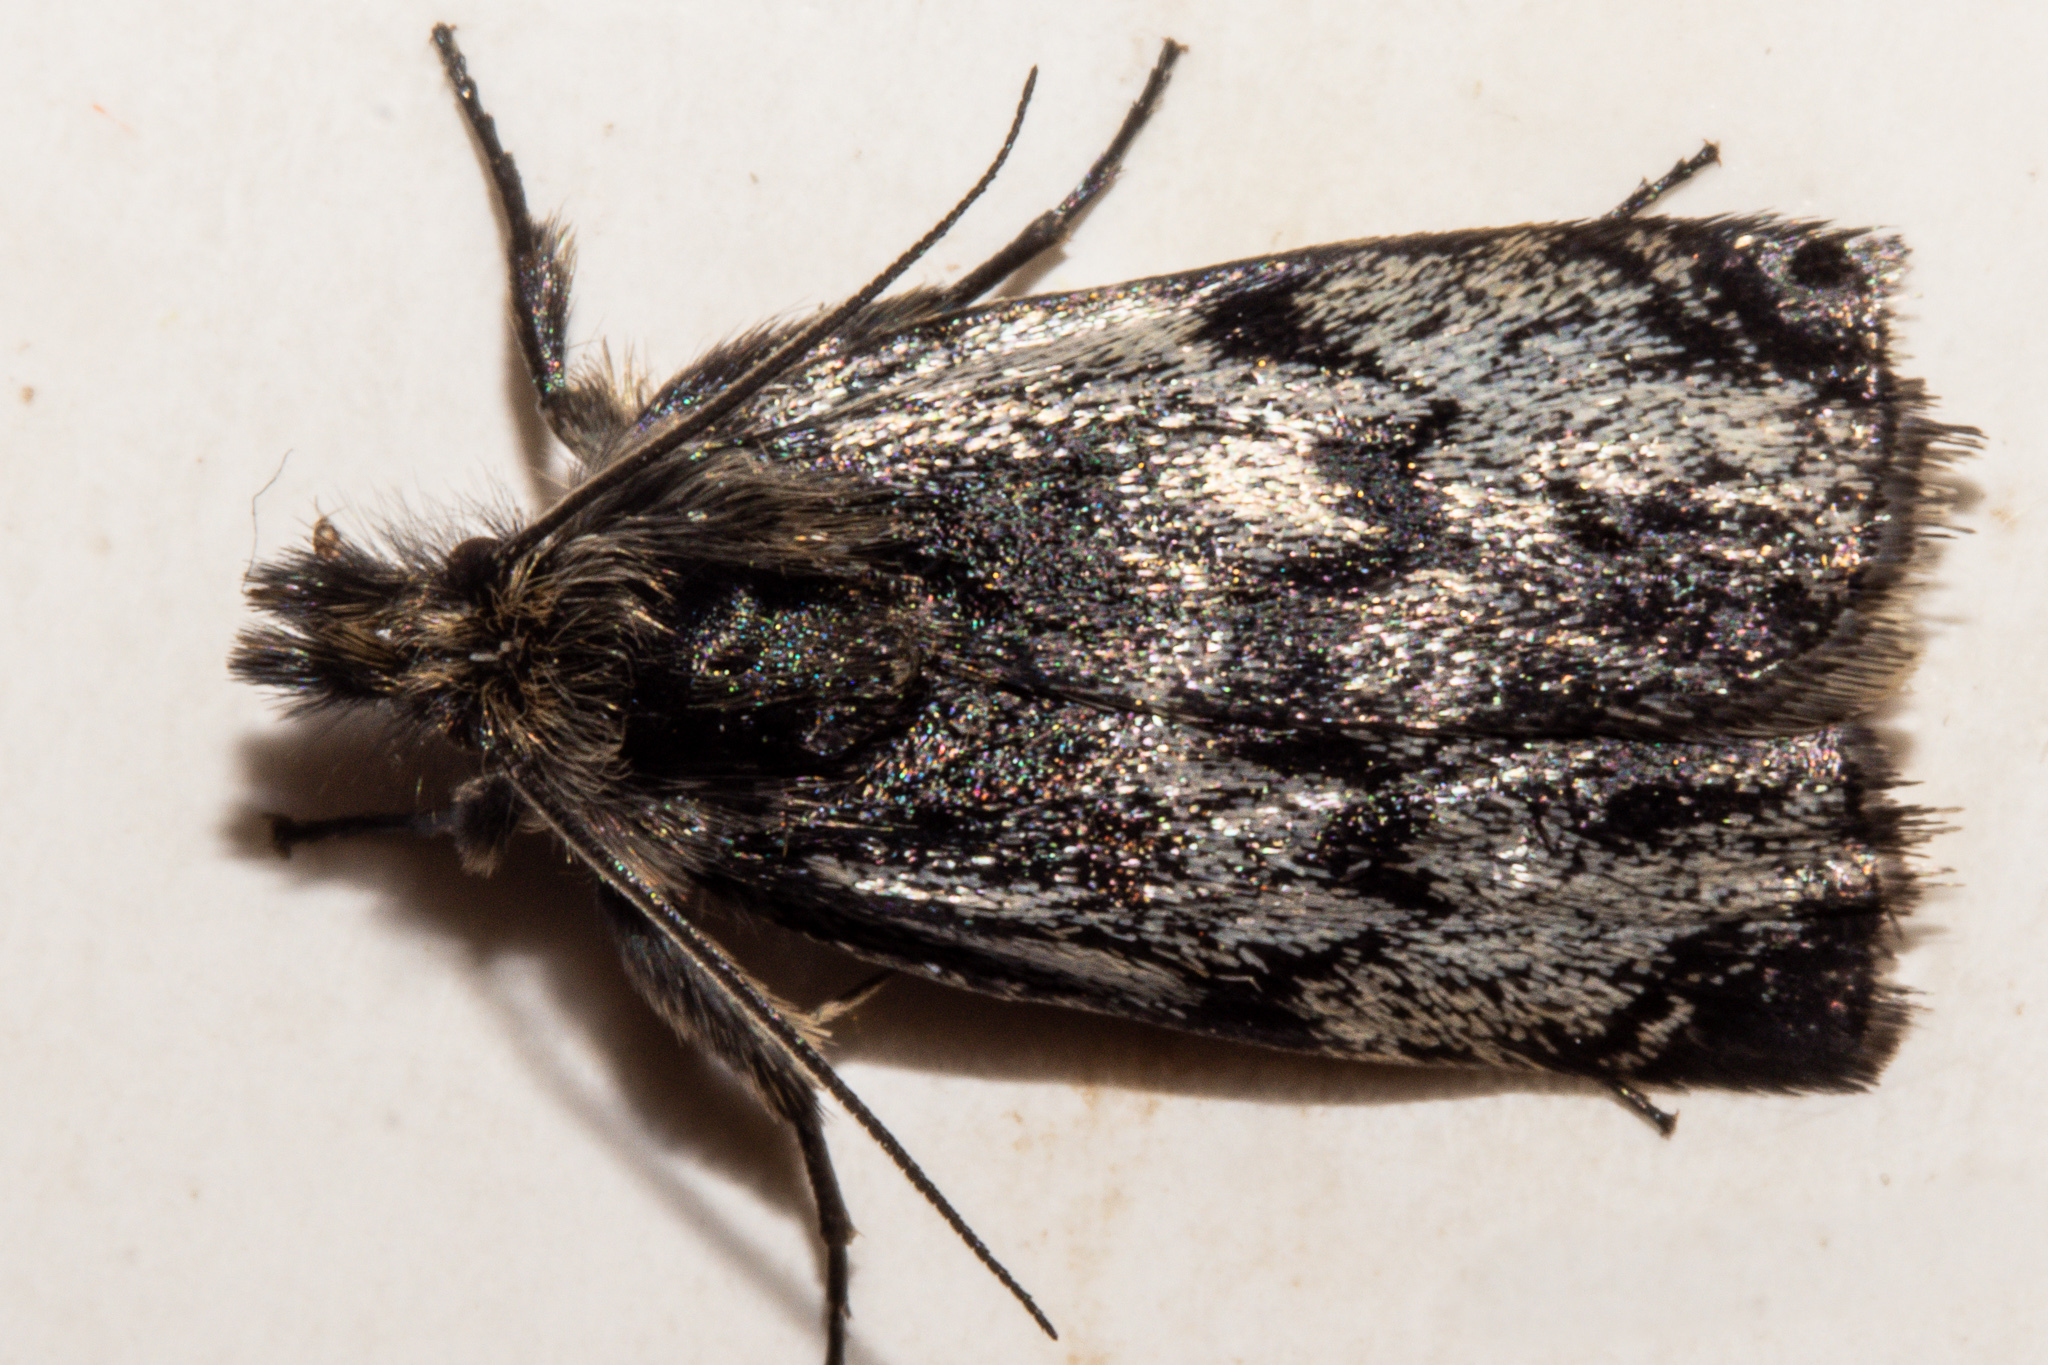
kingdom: Animalia
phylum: Arthropoda
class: Insecta
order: Lepidoptera
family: Crambidae
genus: Tawhitia
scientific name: Tawhitia glaucophanes
